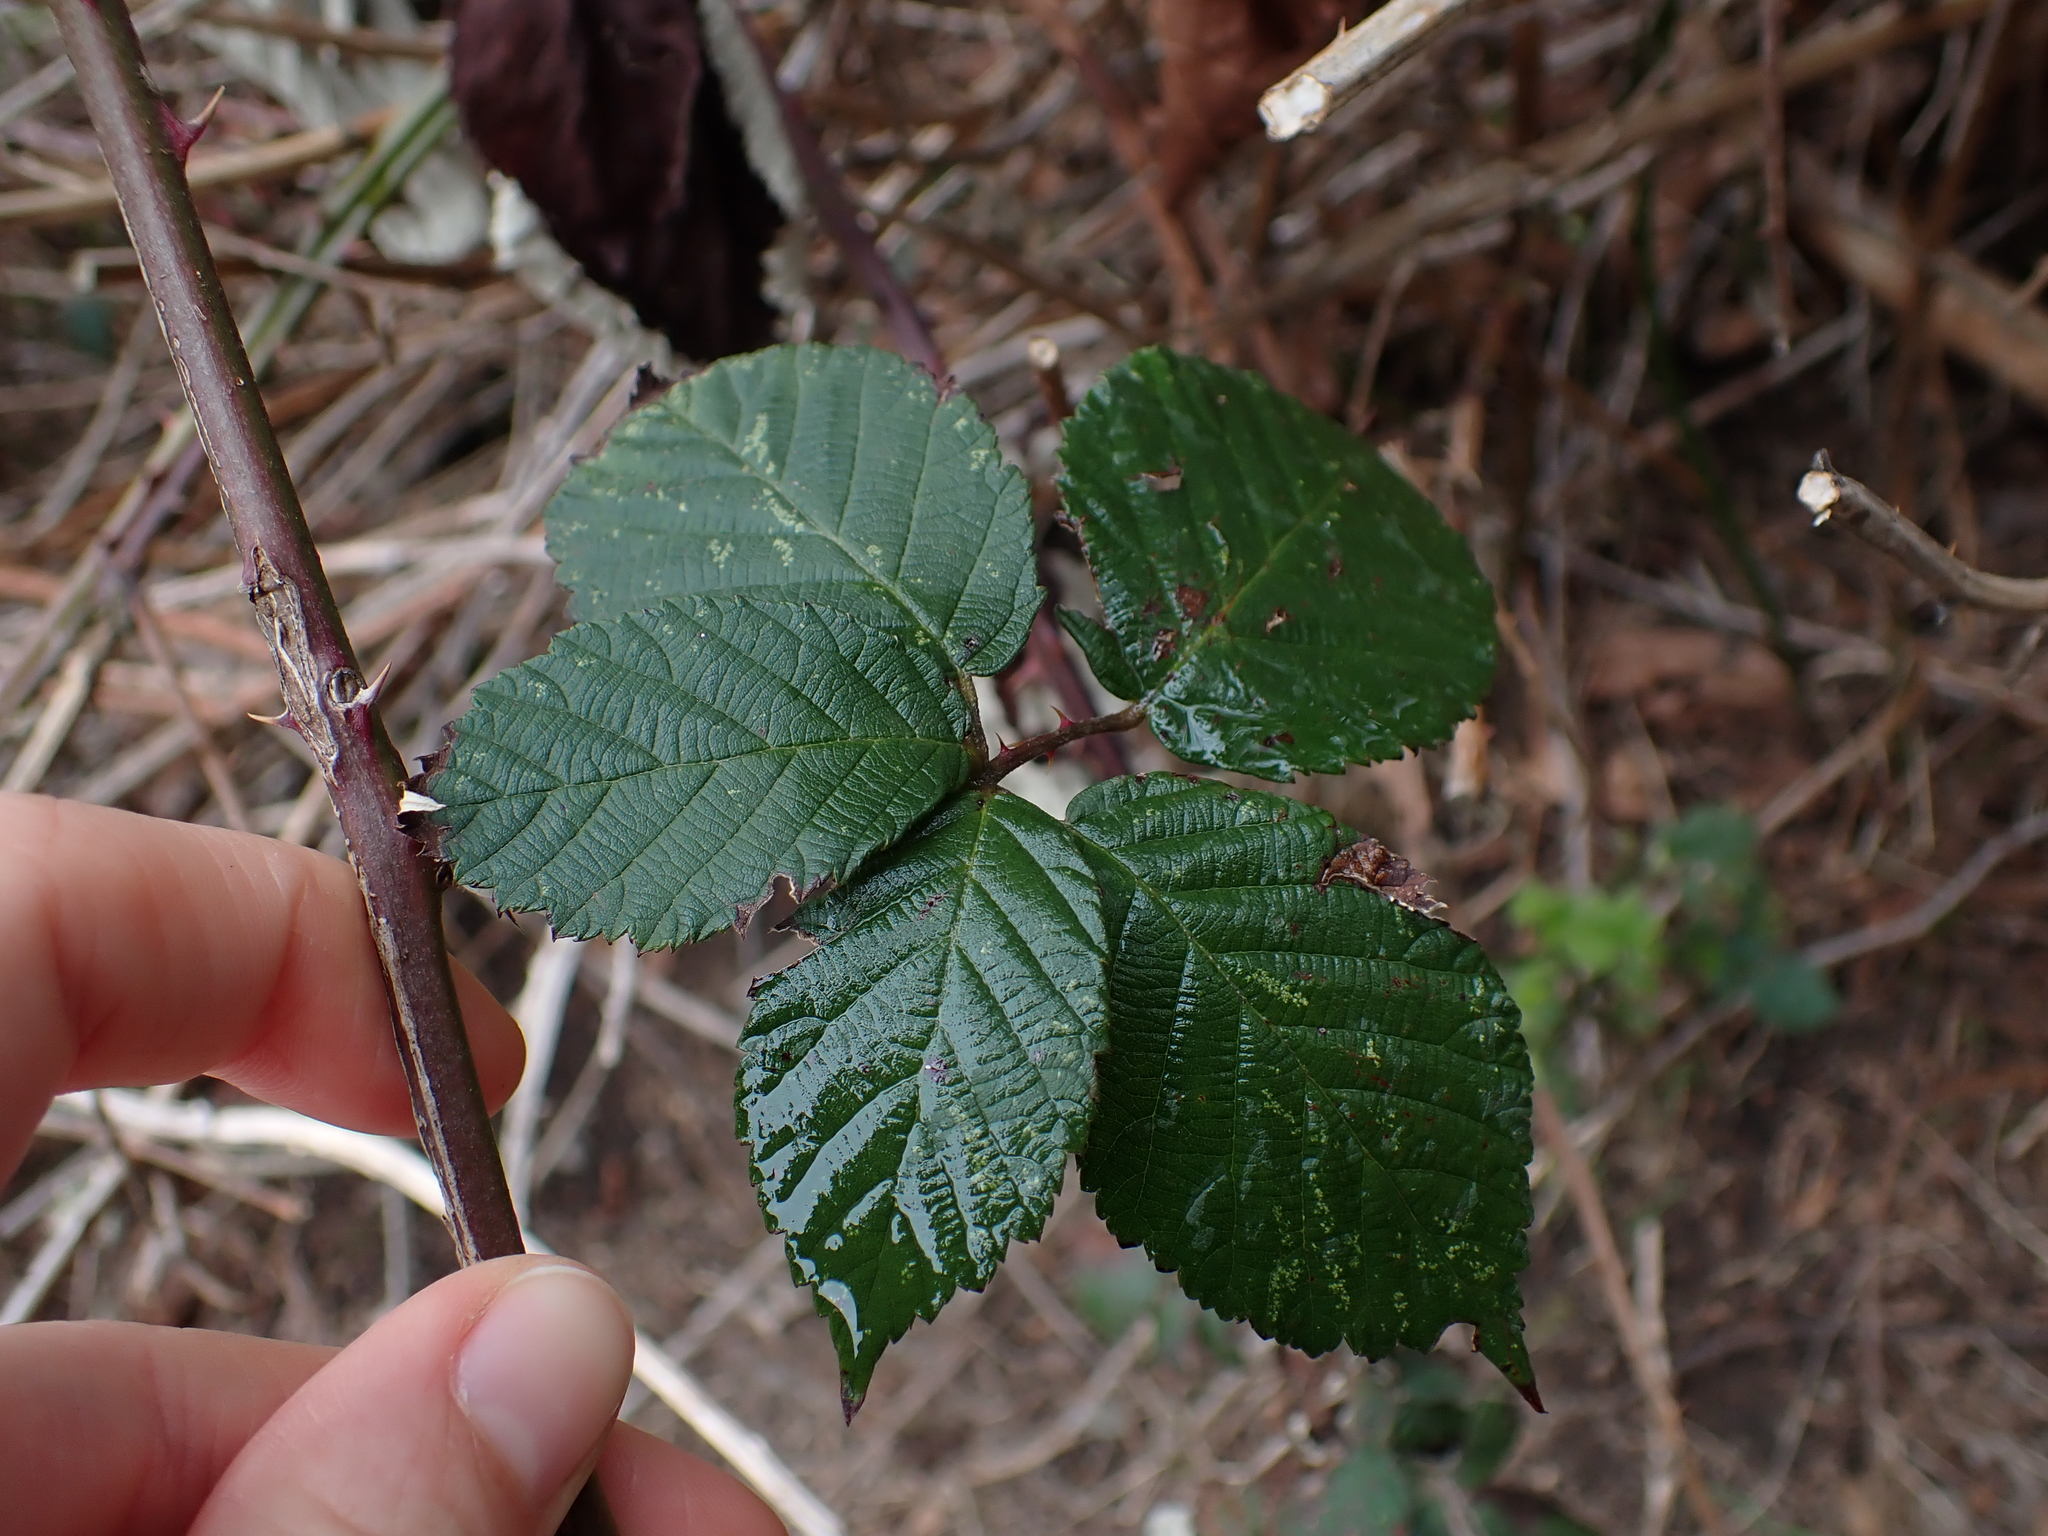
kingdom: Plantae
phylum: Tracheophyta
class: Magnoliopsida
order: Rosales
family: Rosaceae
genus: Rubus
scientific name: Rubus bifrons
